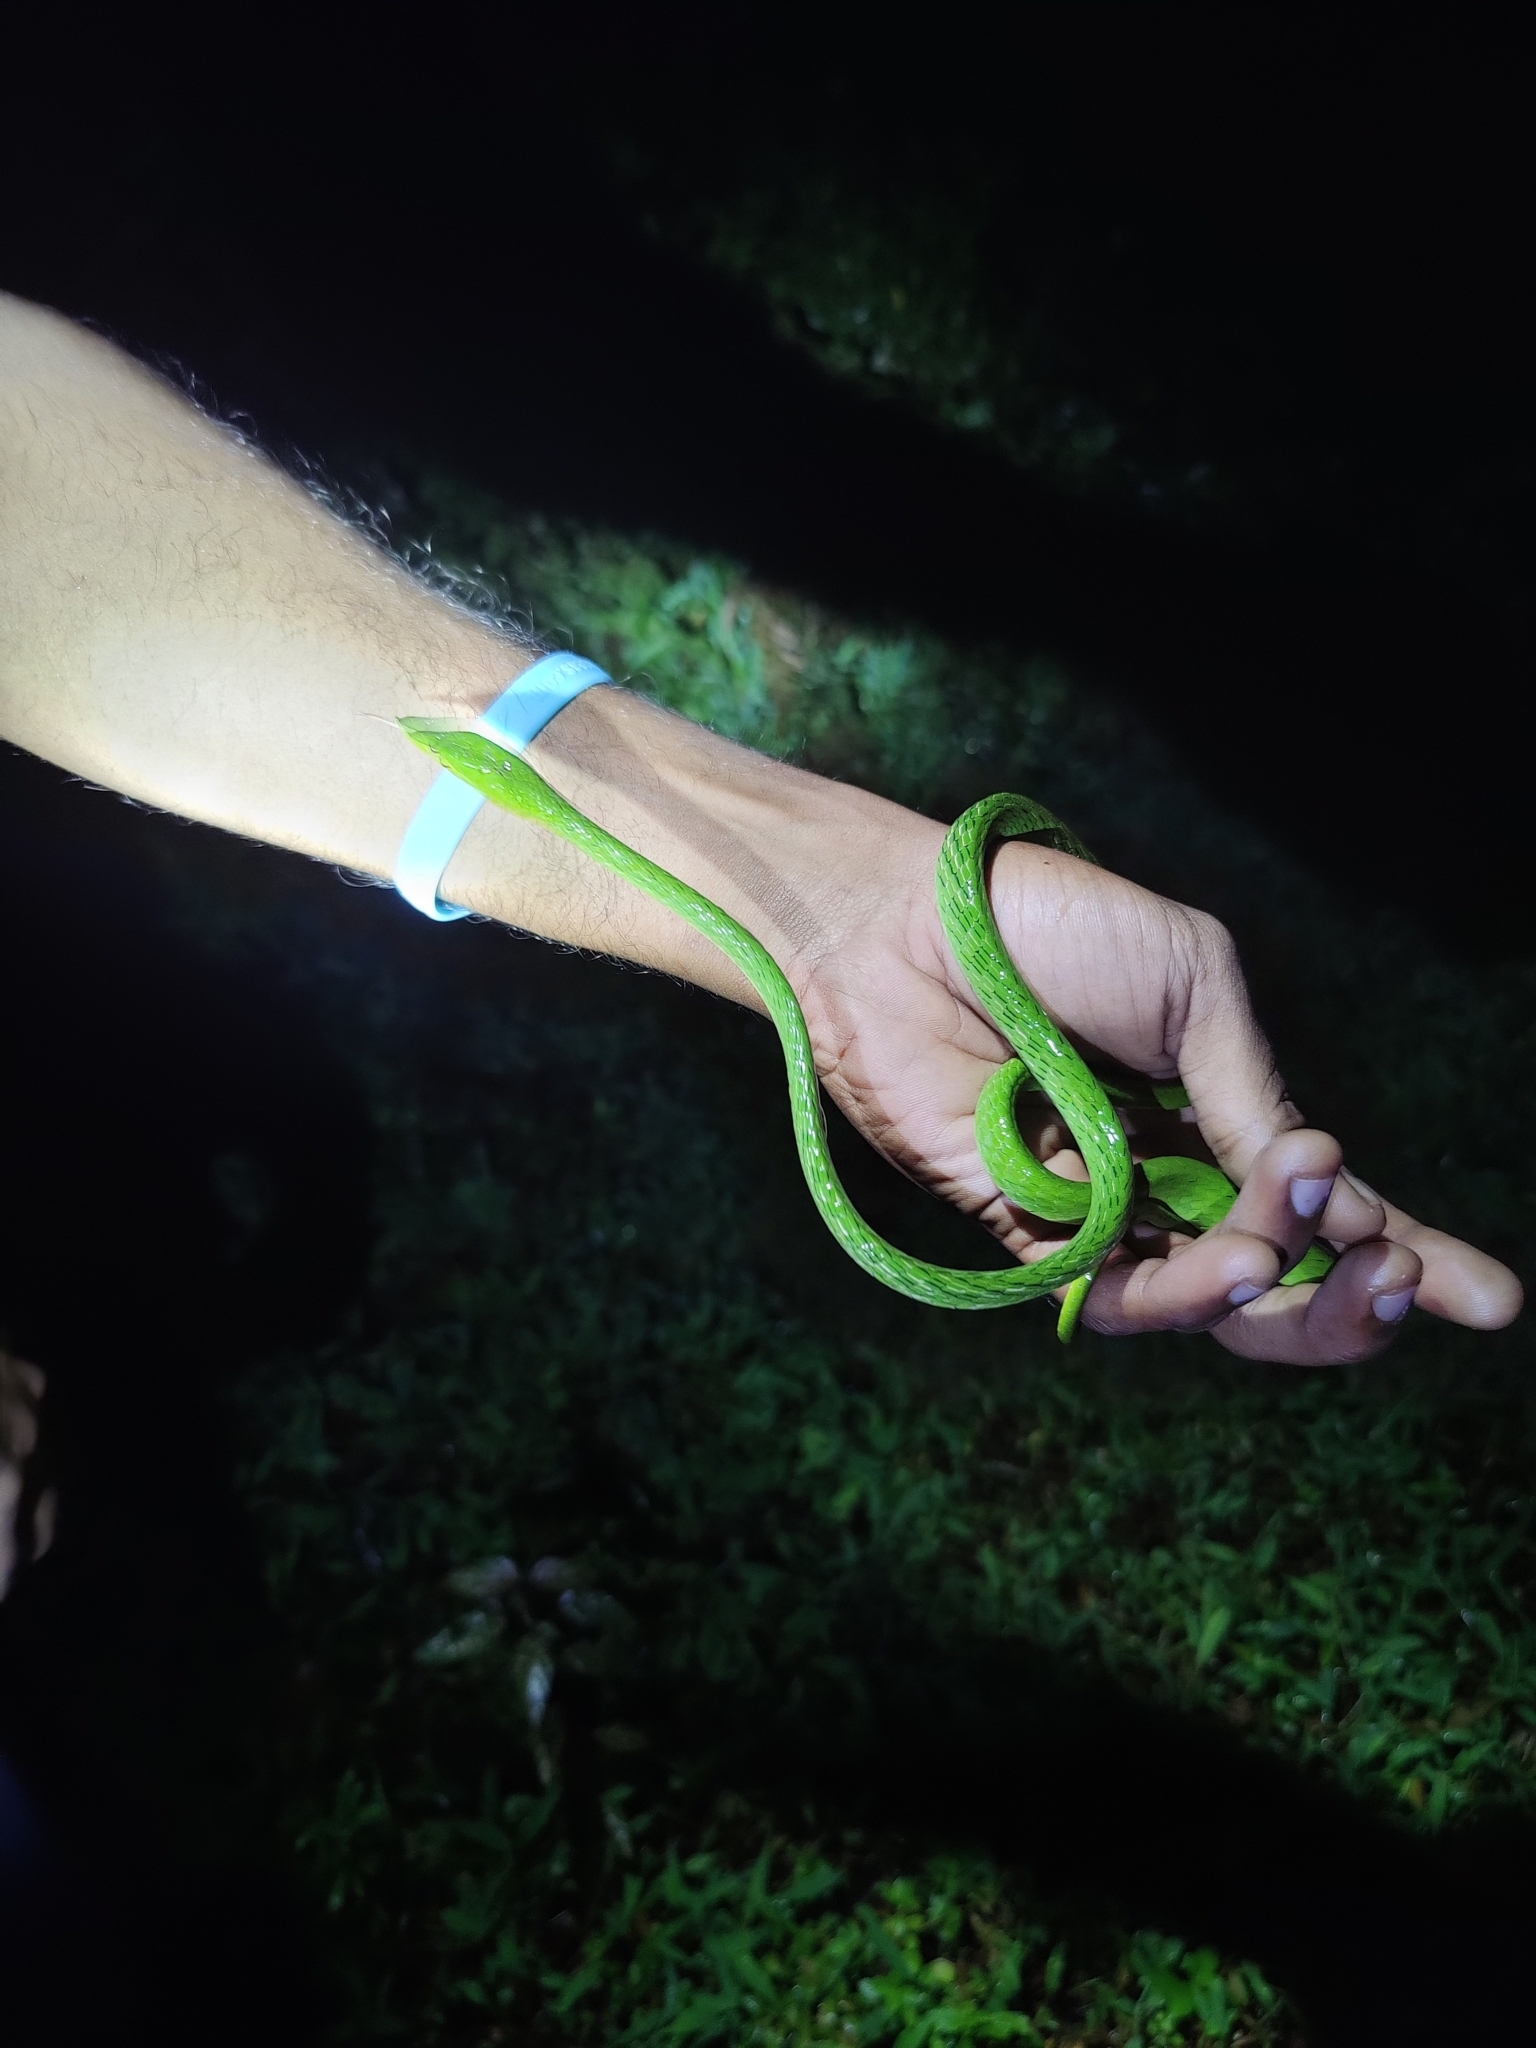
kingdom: Animalia
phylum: Chordata
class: Squamata
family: Colubridae
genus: Ahaetulla
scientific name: Ahaetulla farnsworthi
